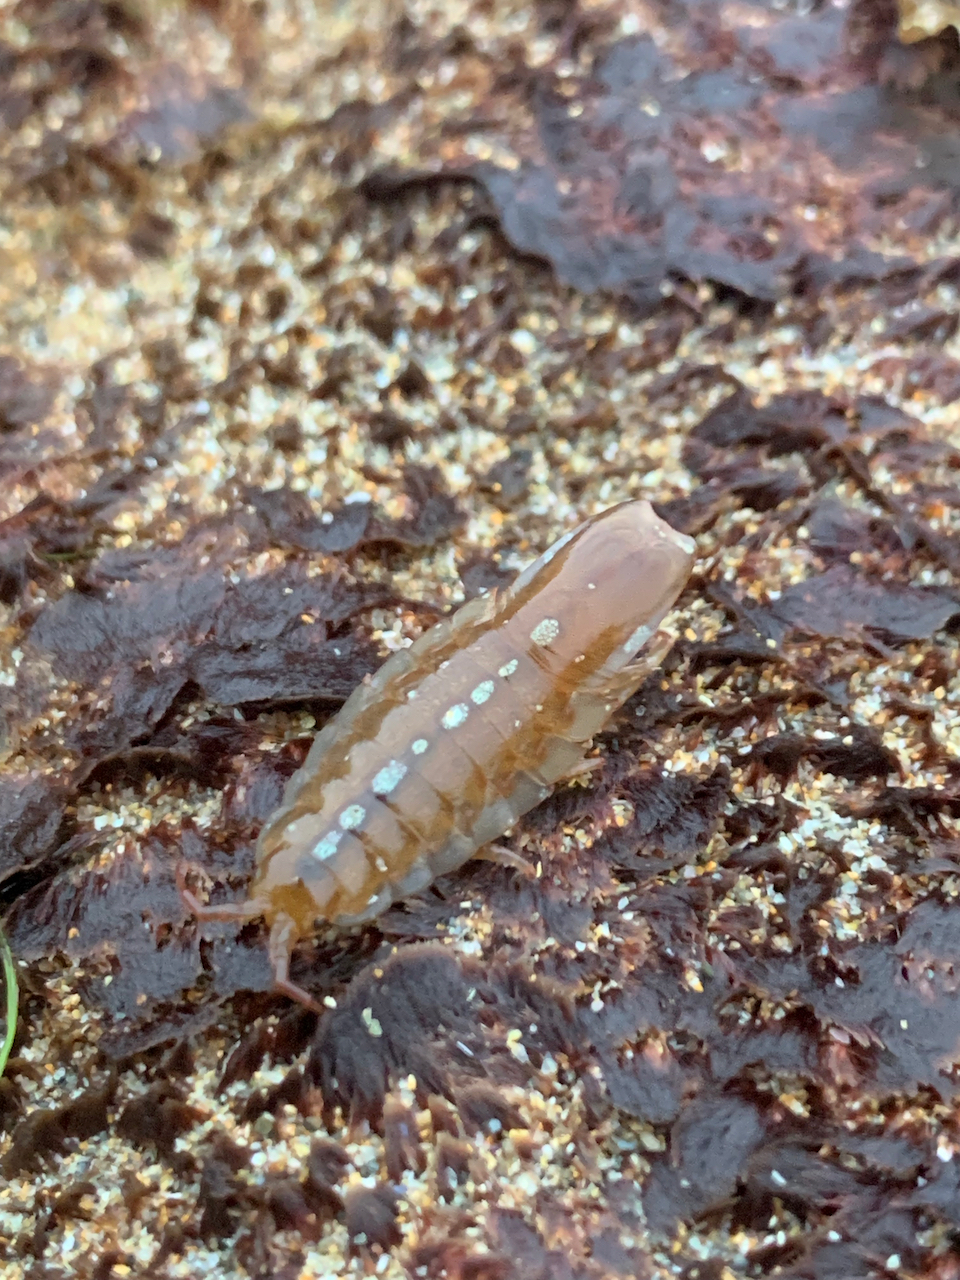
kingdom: Animalia
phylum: Arthropoda
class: Malacostraca
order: Isopoda
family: Idoteidae
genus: Idotea
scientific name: Idotea emarginata
